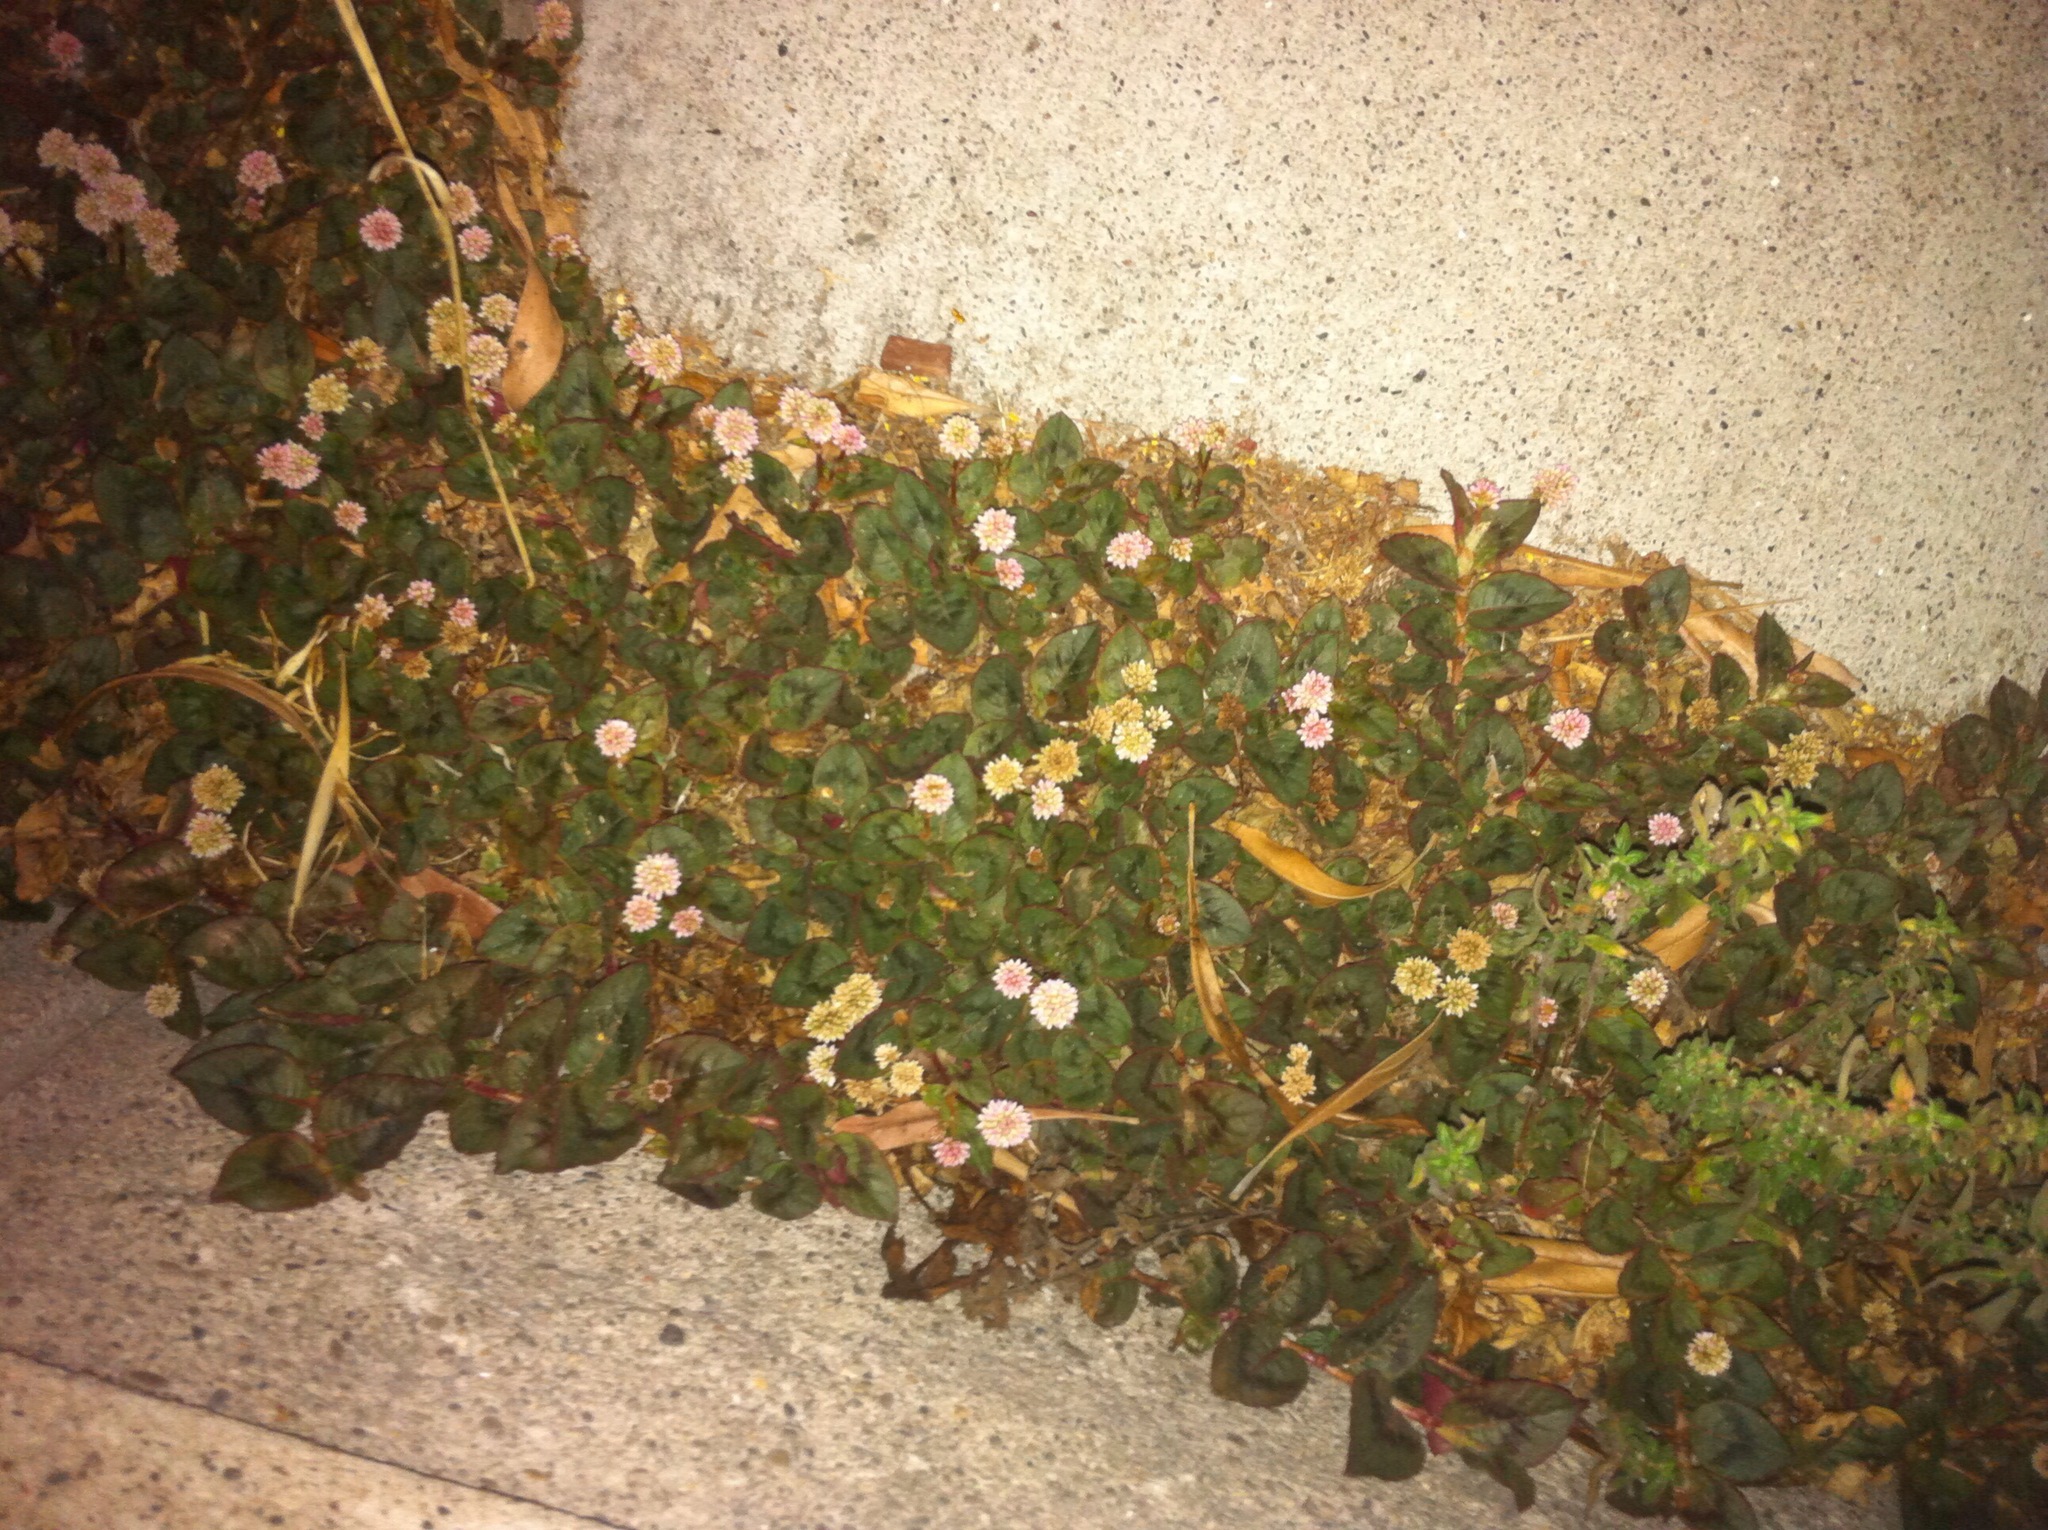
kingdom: Plantae
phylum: Tracheophyta
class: Magnoliopsida
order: Caryophyllales
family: Polygonaceae
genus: Persicaria
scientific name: Persicaria capitata
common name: Pinkhead smartweed
